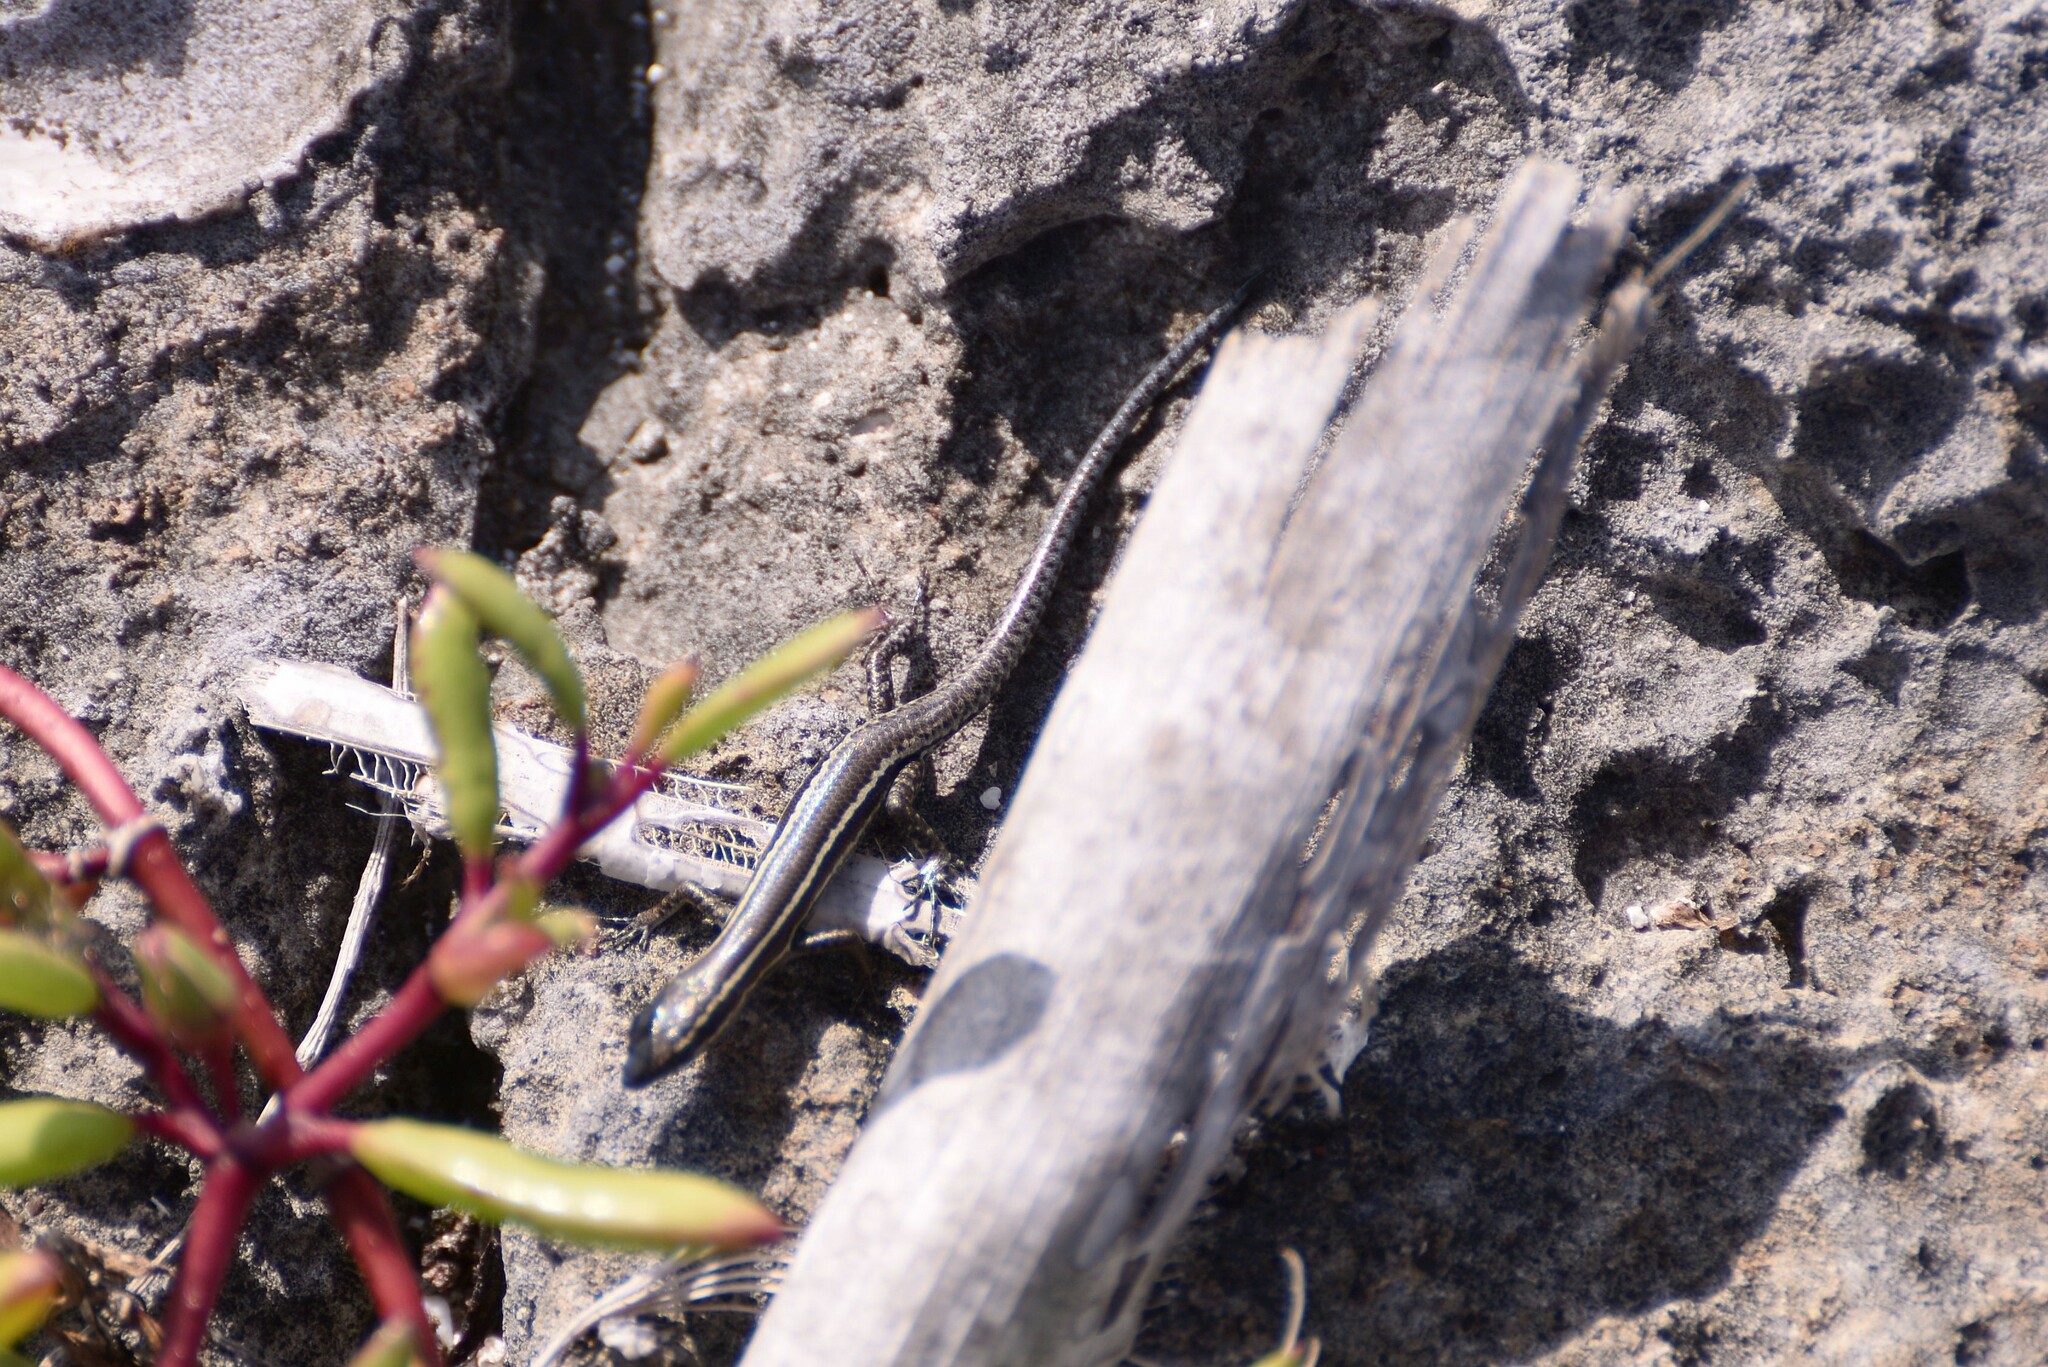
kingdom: Animalia
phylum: Chordata
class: Squamata
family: Scincidae
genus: Cryptoblepharus
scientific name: Cryptoblepharus novohebridicus
